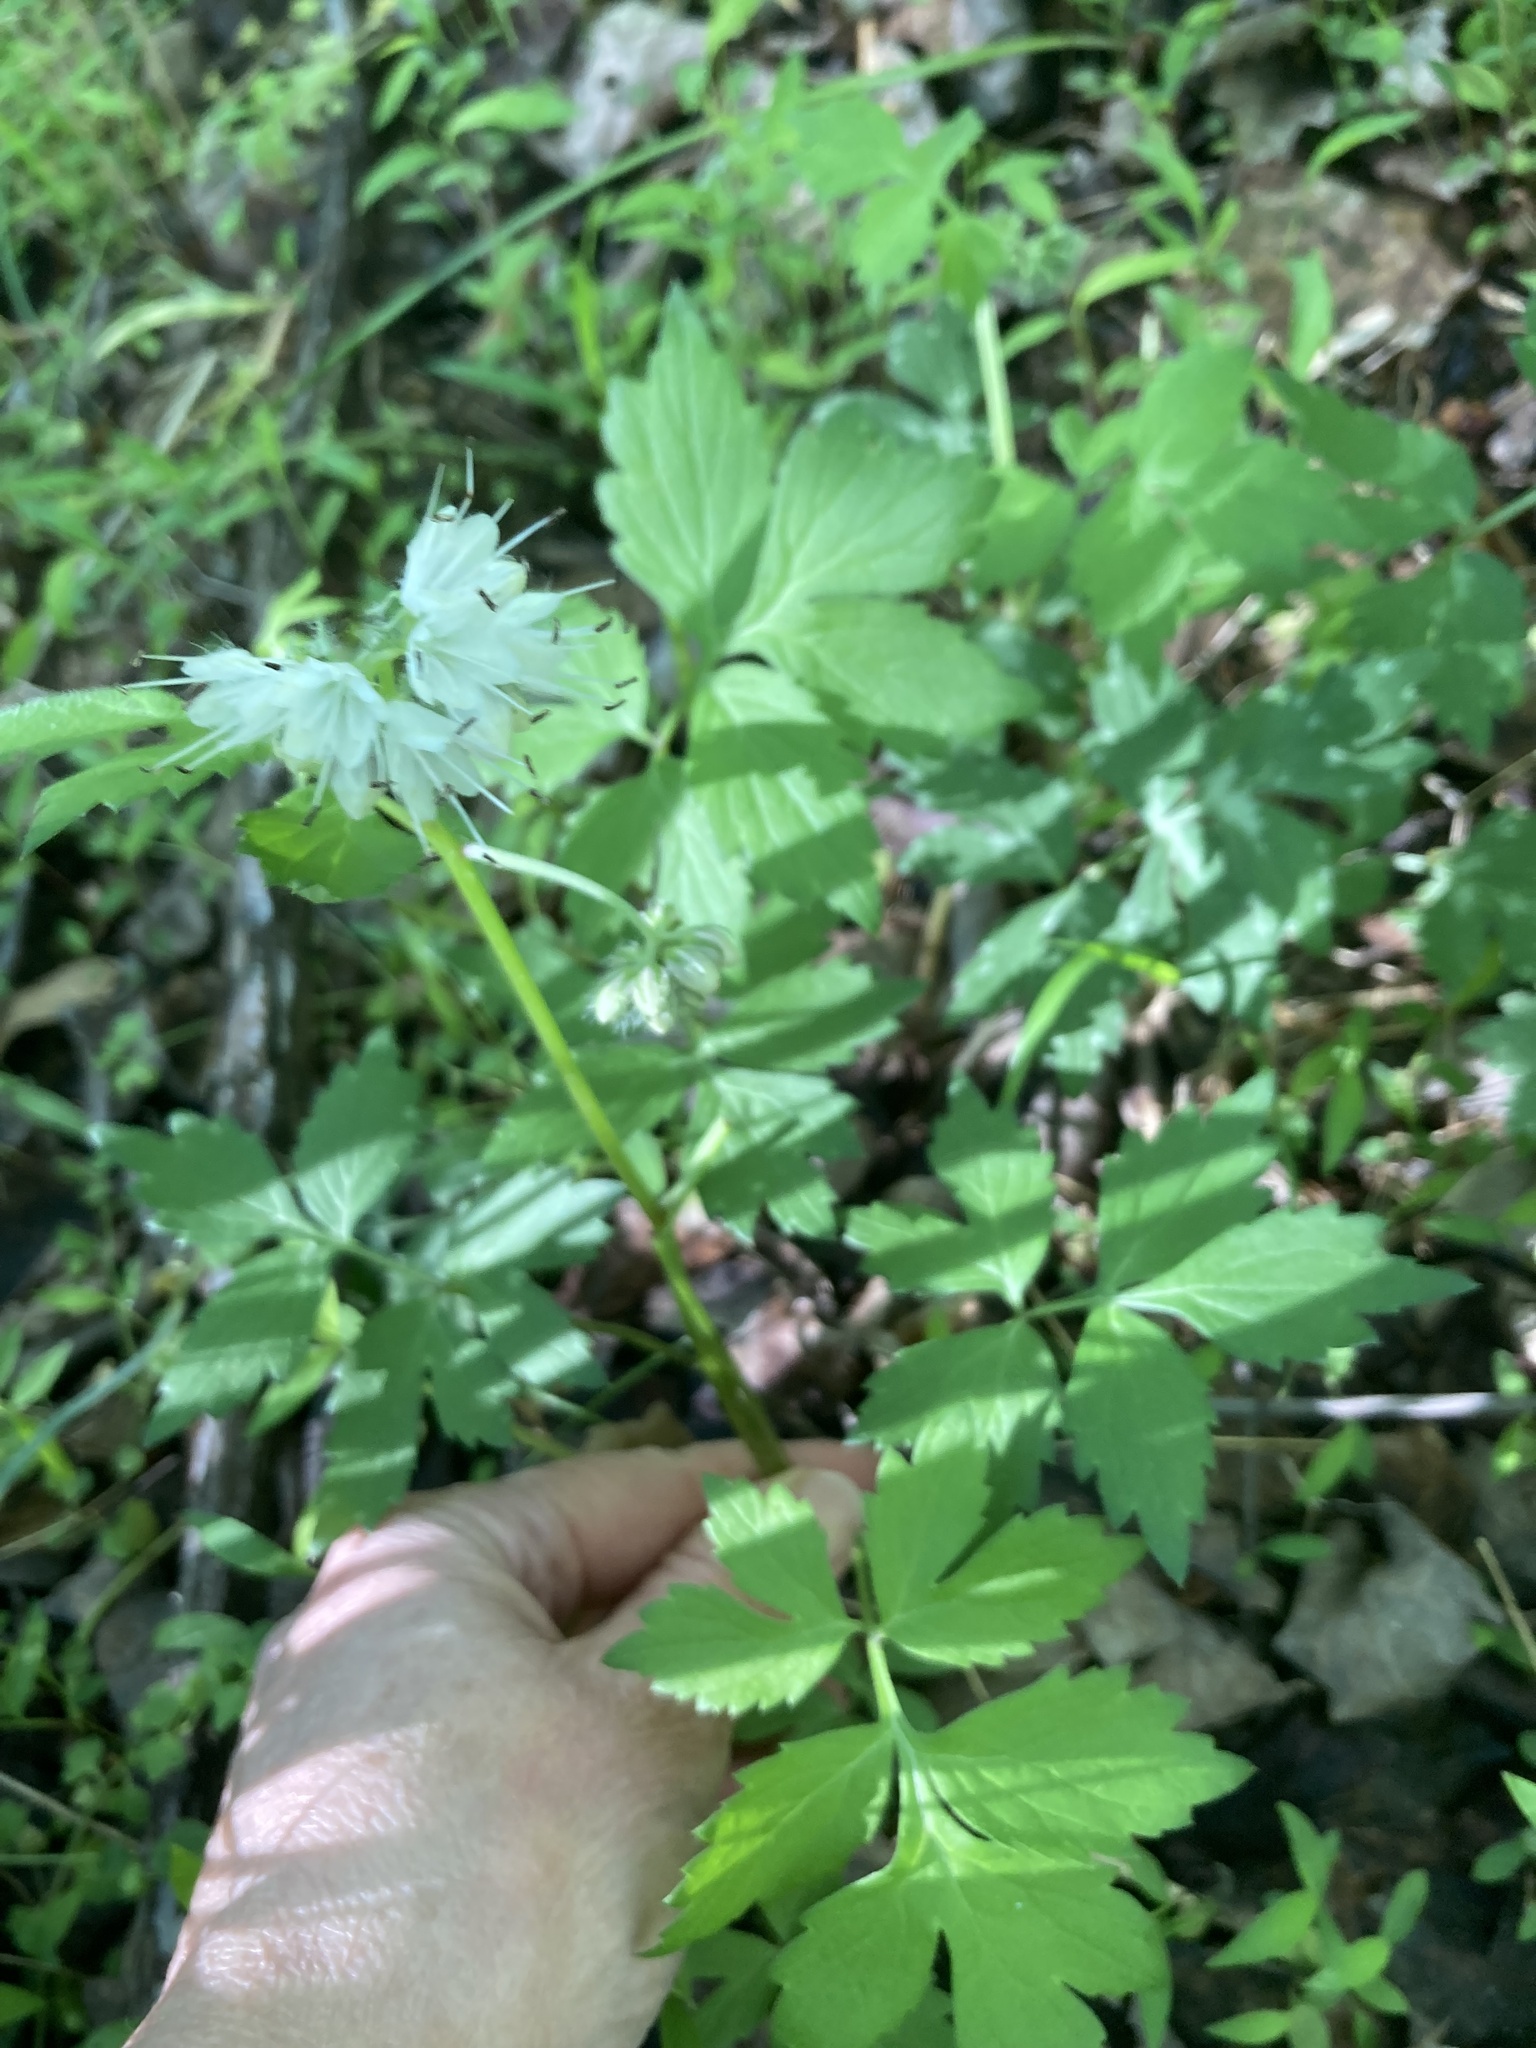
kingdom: Plantae
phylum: Tracheophyta
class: Magnoliopsida
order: Boraginales
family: Hydrophyllaceae
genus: Hydrophyllum
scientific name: Hydrophyllum virginianum
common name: Virginia waterleaf
